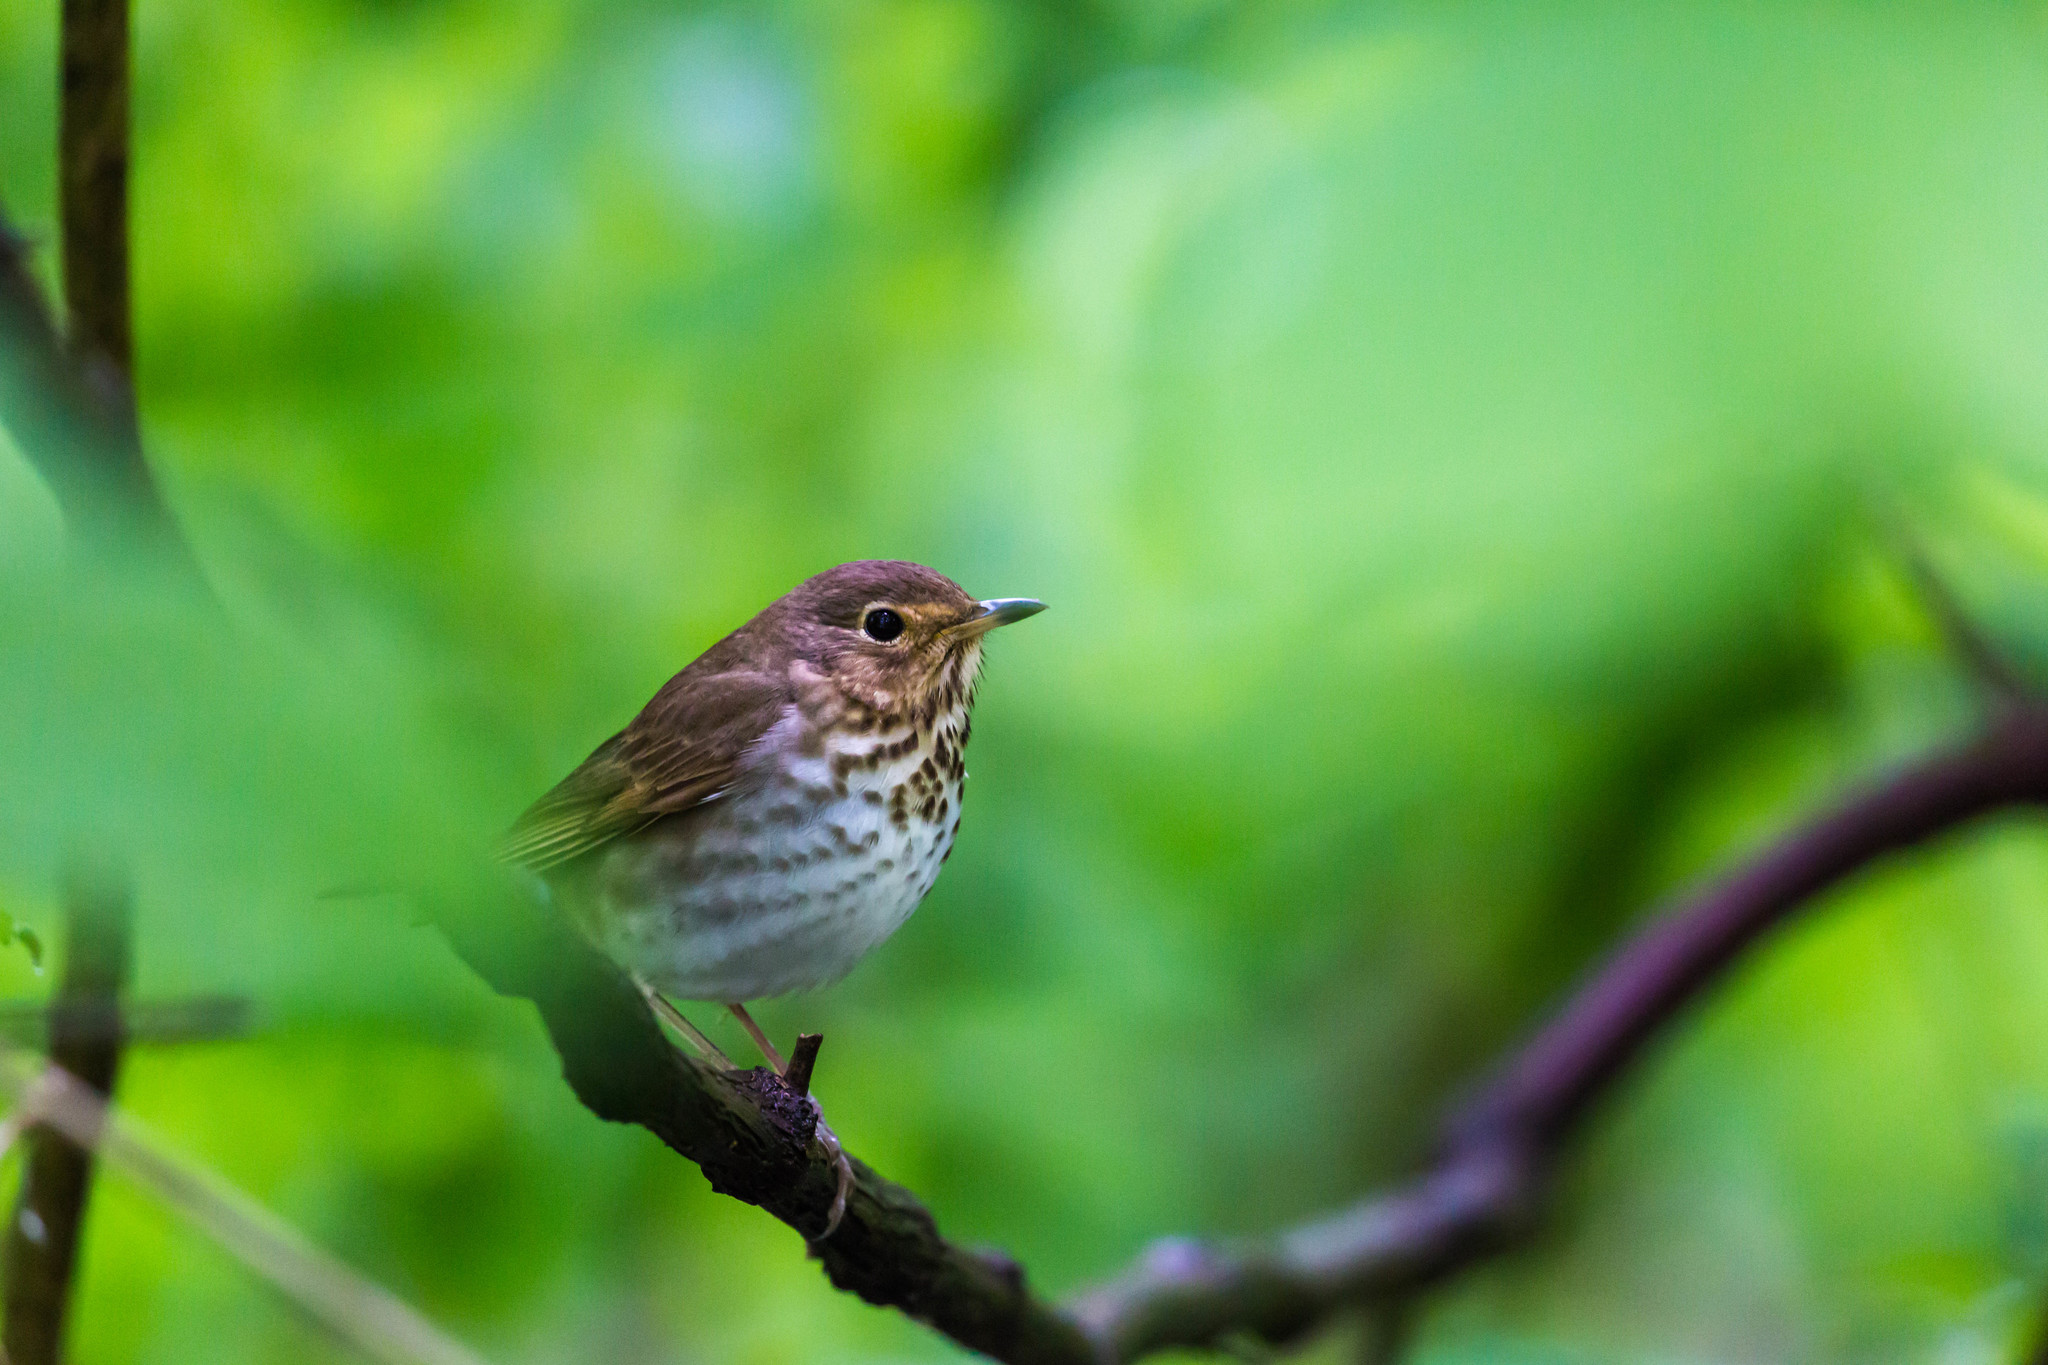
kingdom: Animalia
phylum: Chordata
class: Aves
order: Passeriformes
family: Turdidae
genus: Catharus
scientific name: Catharus ustulatus
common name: Swainson's thrush
